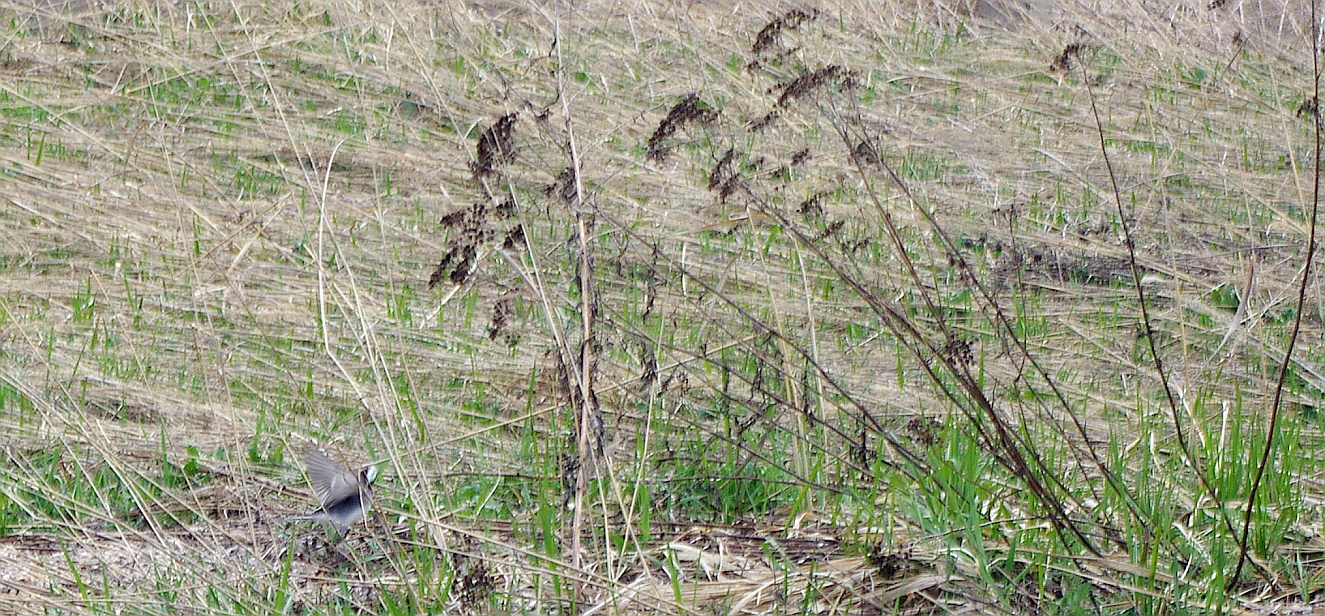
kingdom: Plantae
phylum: Tracheophyta
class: Magnoliopsida
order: Asterales
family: Asteraceae
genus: Tanacetum
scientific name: Tanacetum vulgare
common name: Common tansy
